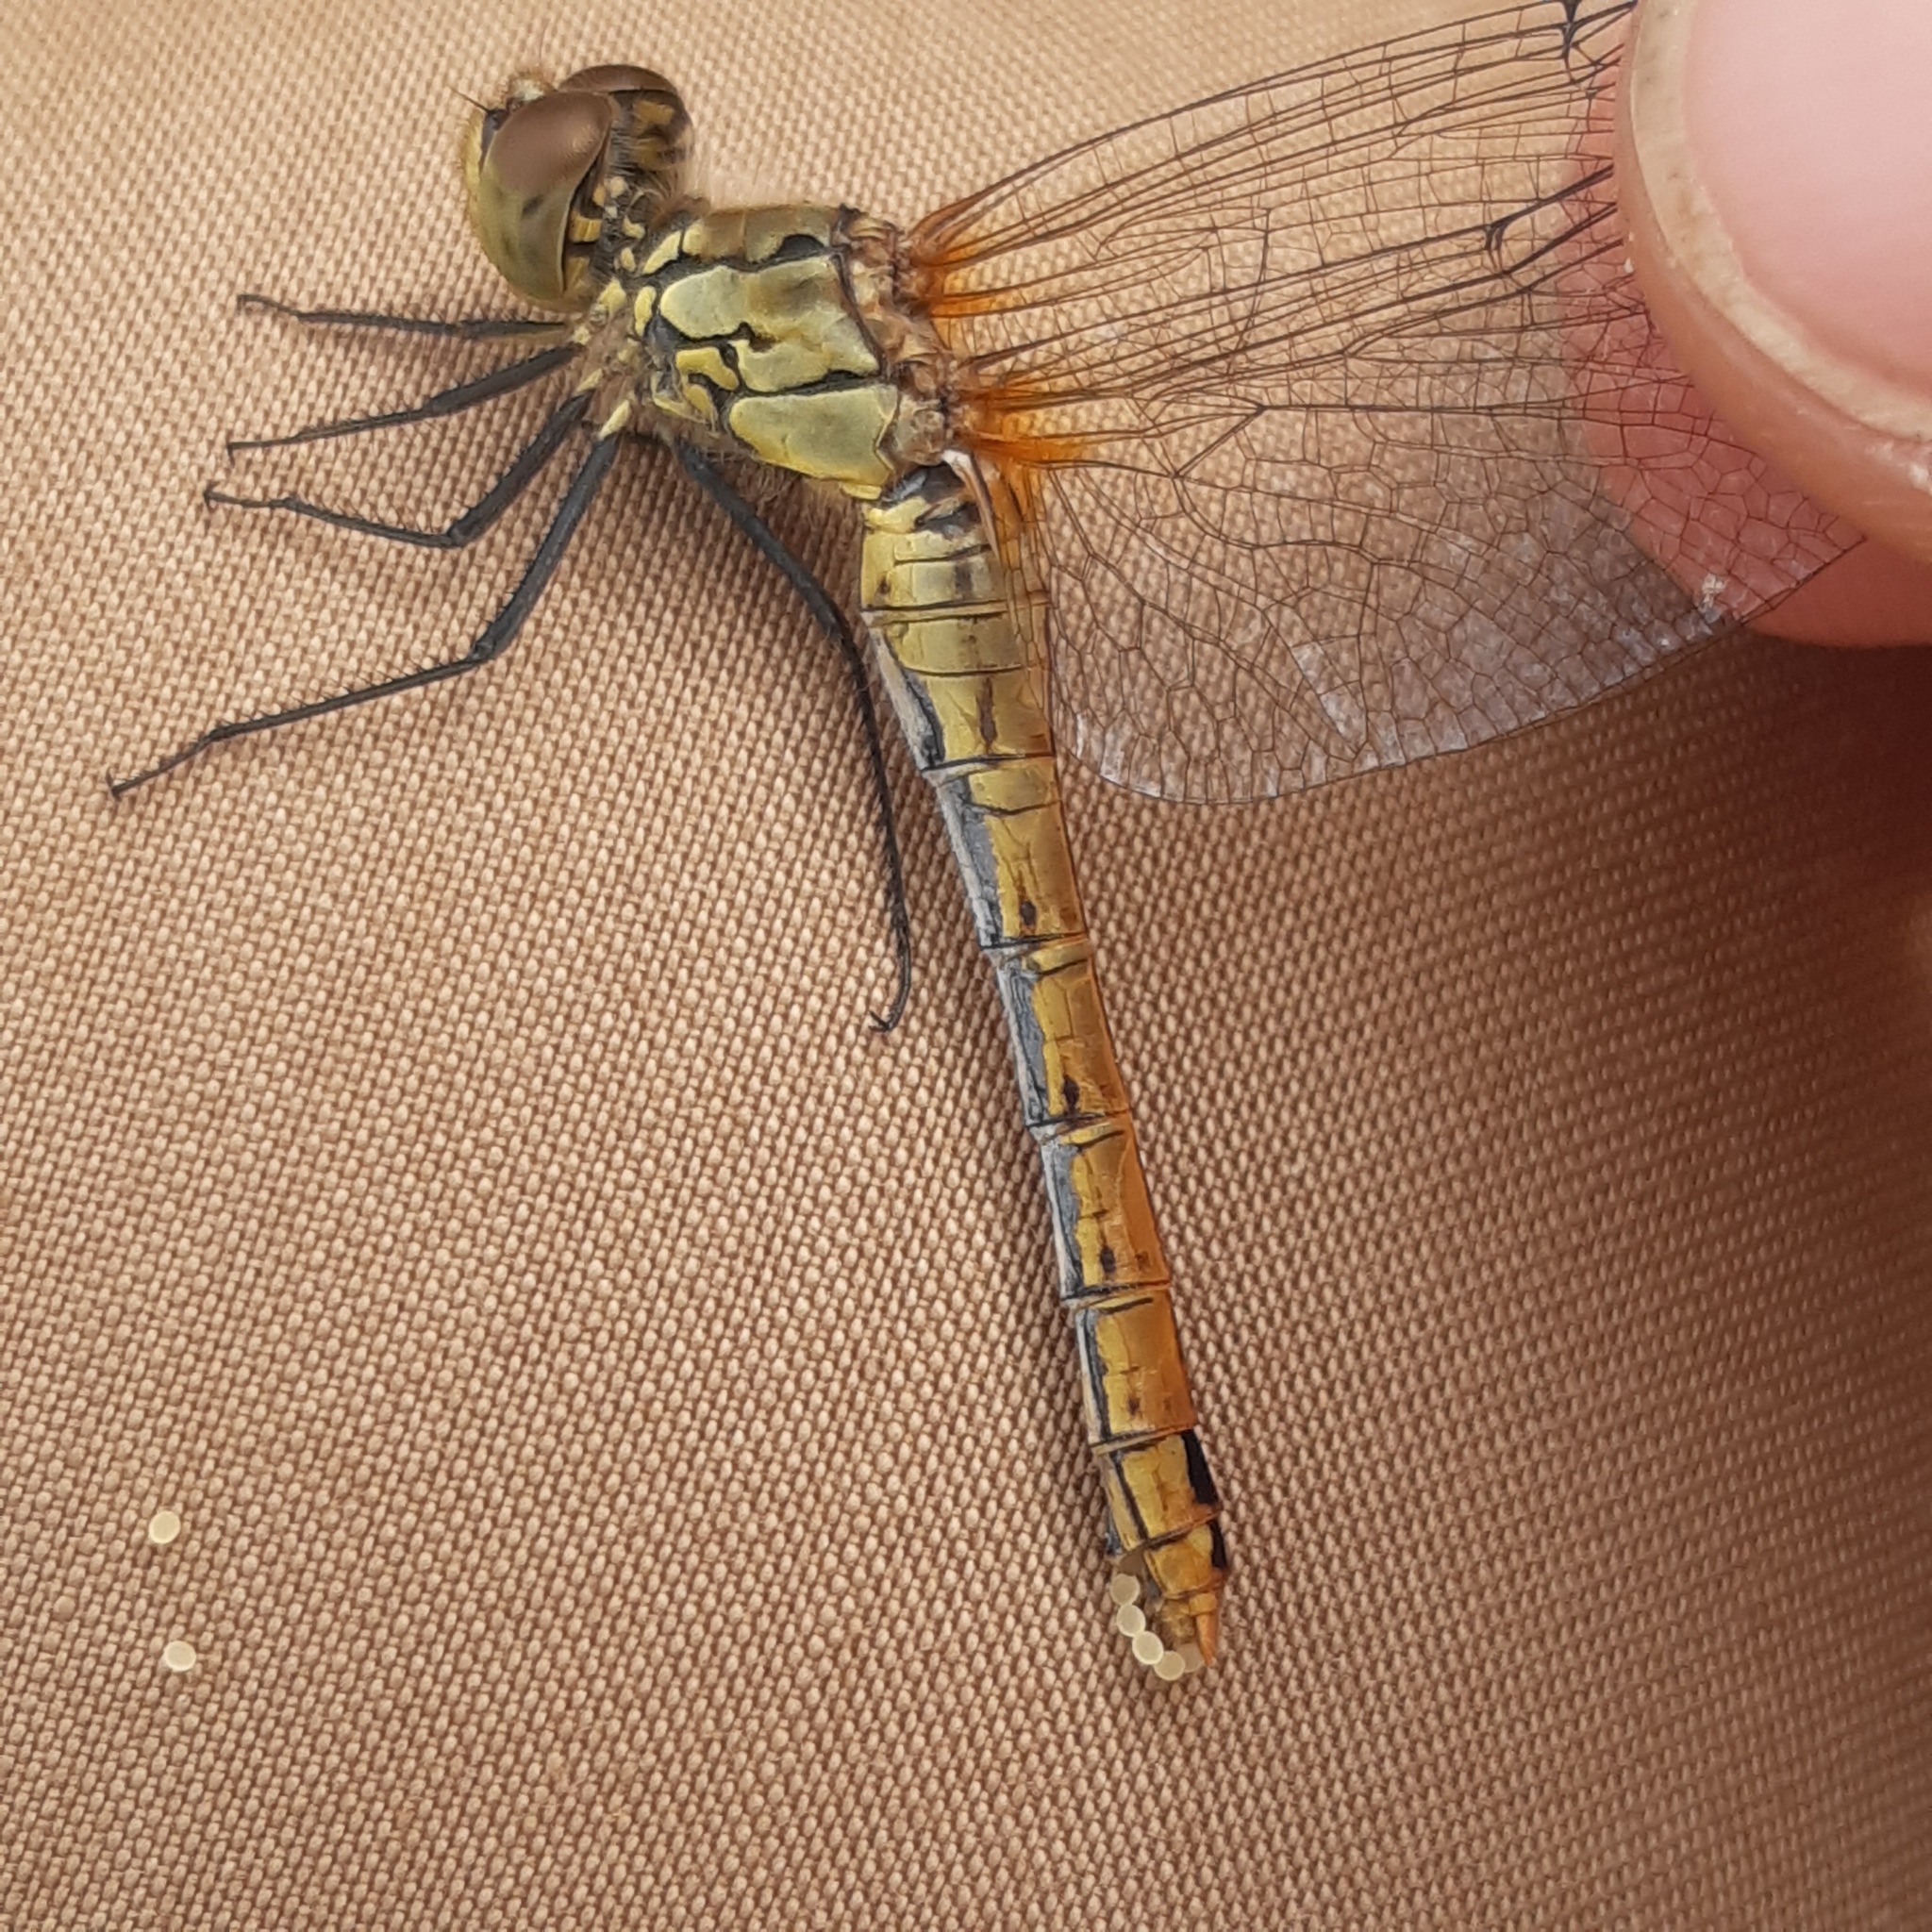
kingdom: Animalia
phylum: Arthropoda
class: Insecta
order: Odonata
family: Libellulidae
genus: Sympetrum
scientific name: Sympetrum sanguineum
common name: Ruddy darter
